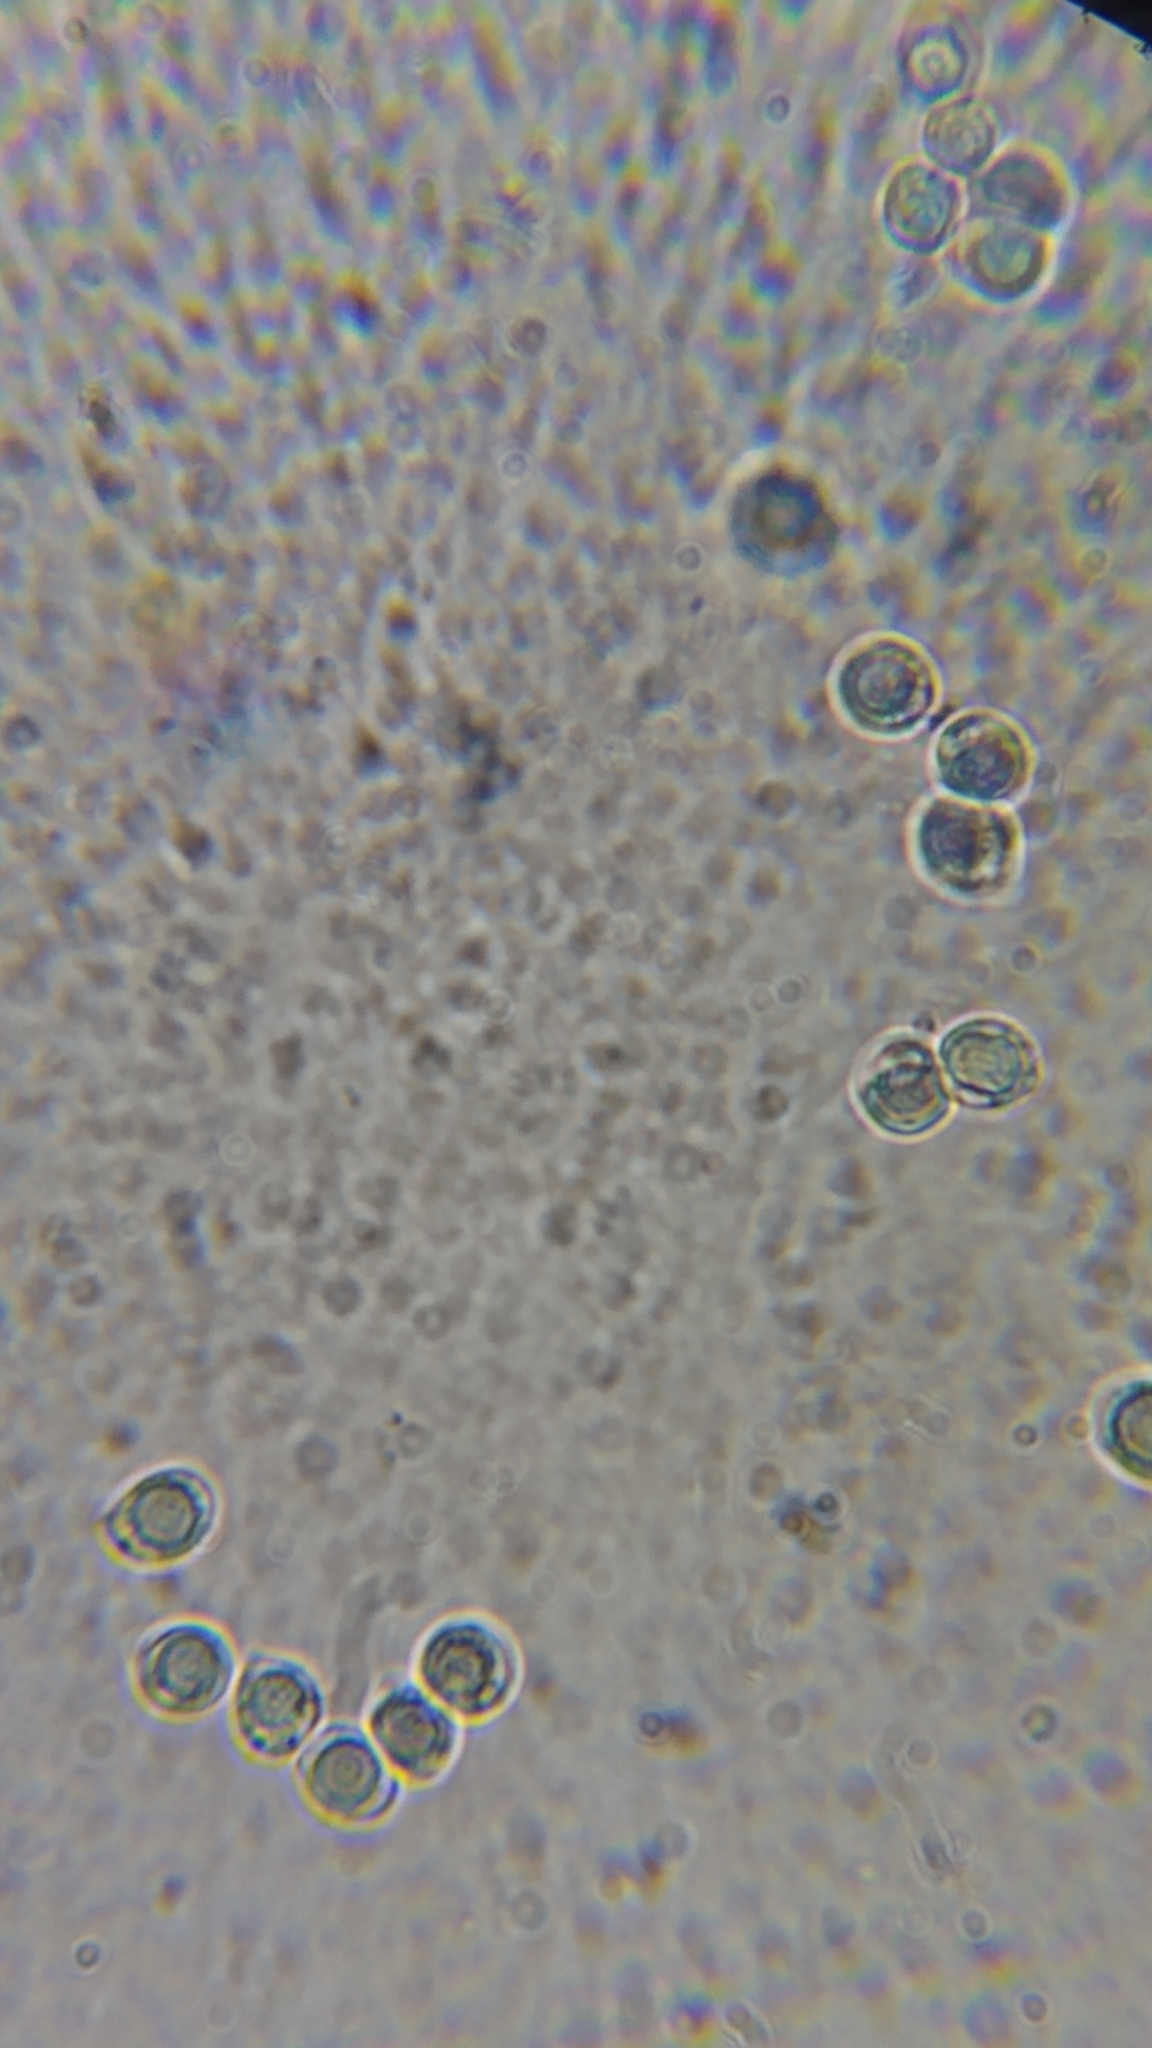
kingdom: Fungi
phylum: Basidiomycota
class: Agaricomycetes
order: Agaricales
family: Amanitaceae
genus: Amanita
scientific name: Amanita elongata
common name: Peck's yellow dust amanita
